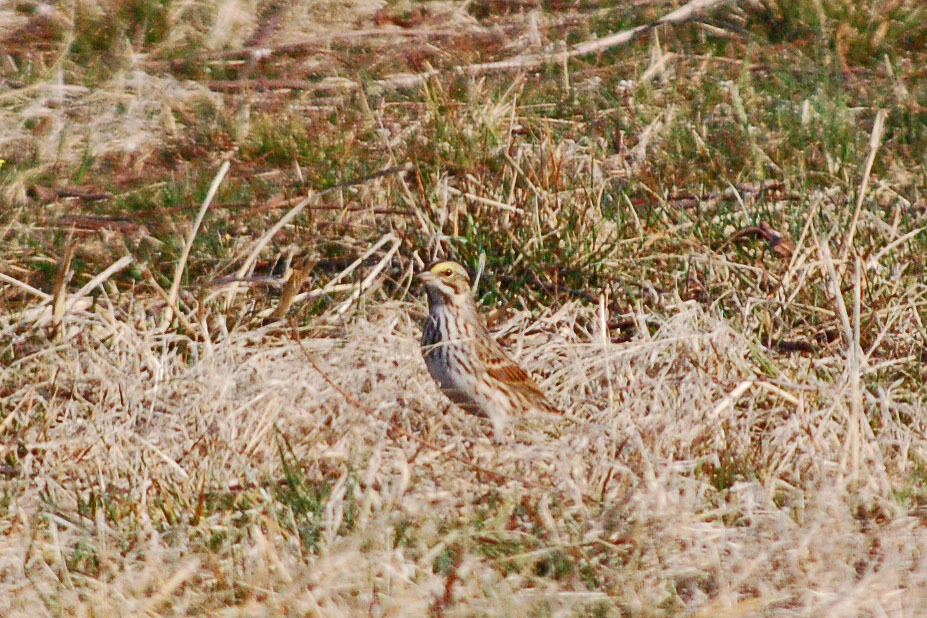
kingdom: Animalia
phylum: Chordata
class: Aves
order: Passeriformes
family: Passerellidae
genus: Passerculus
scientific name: Passerculus sandwichensis
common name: Savannah sparrow
